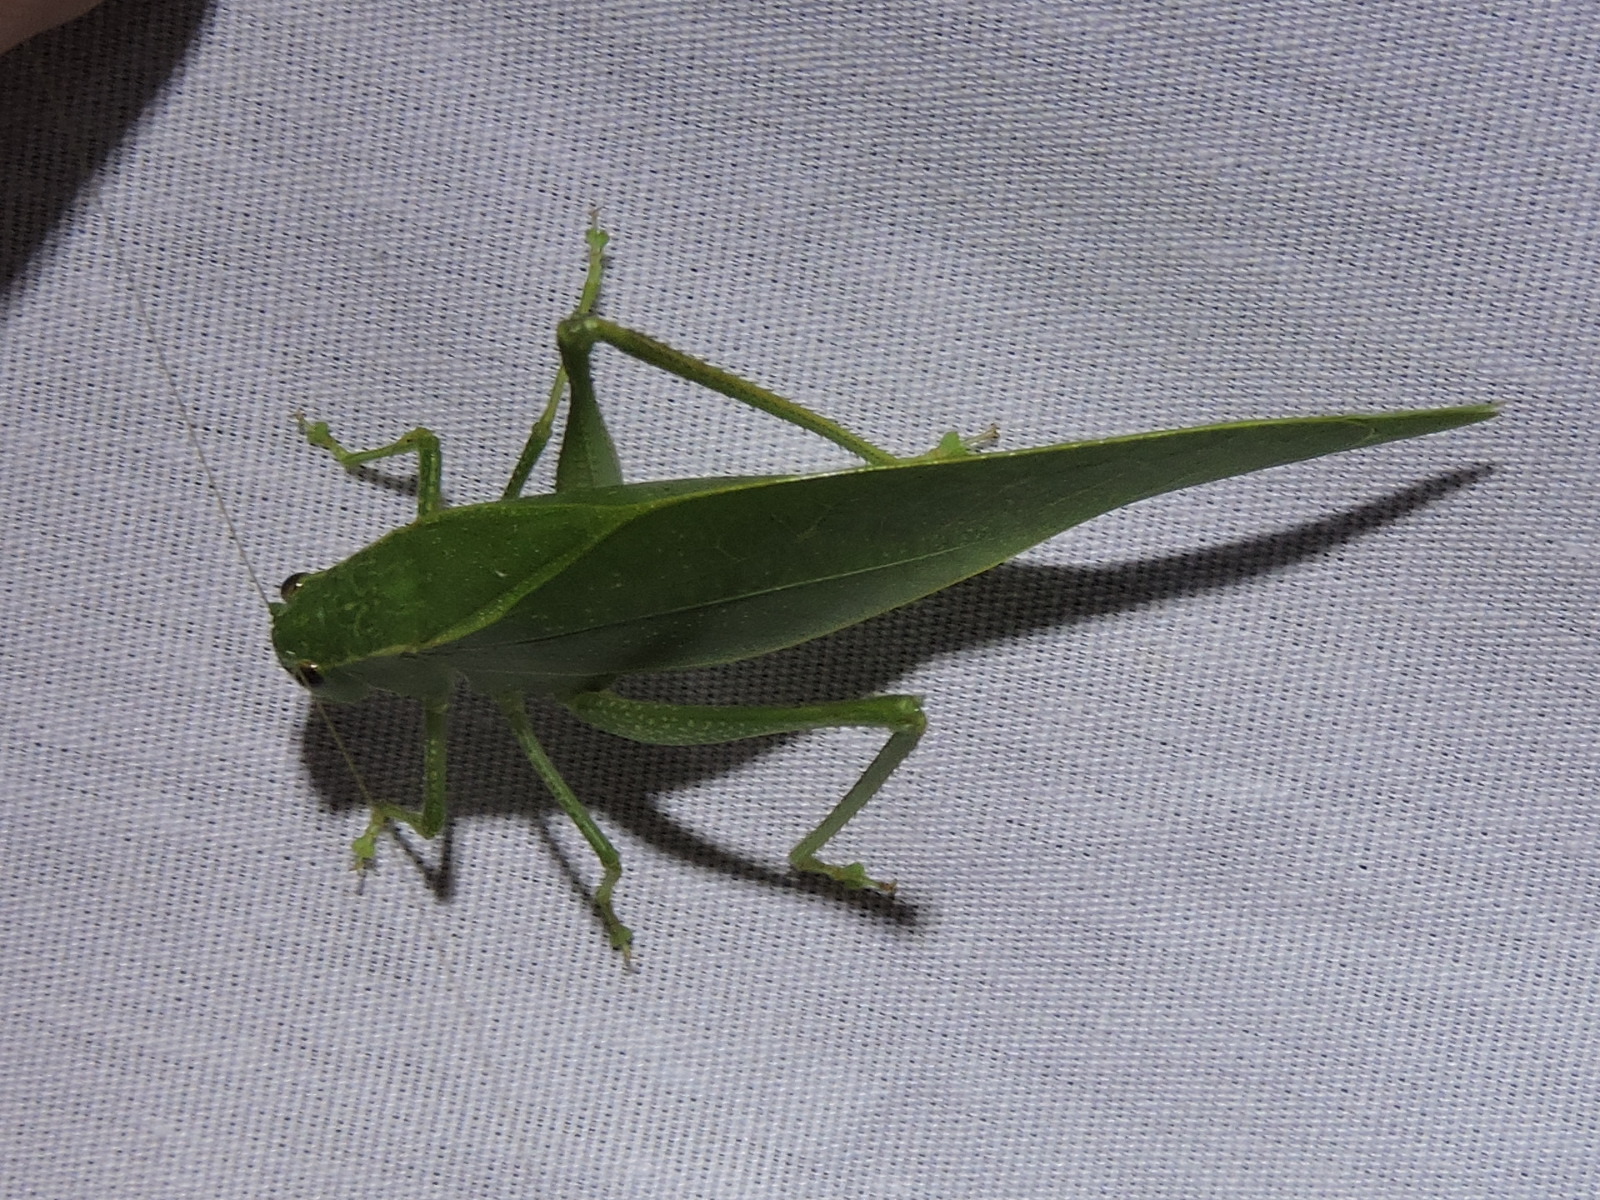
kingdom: Animalia
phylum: Arthropoda
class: Insecta
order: Orthoptera
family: Tettigoniidae
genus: Microcentrum
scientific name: Microcentrum rhombifolium
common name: Broad-winged katydid
